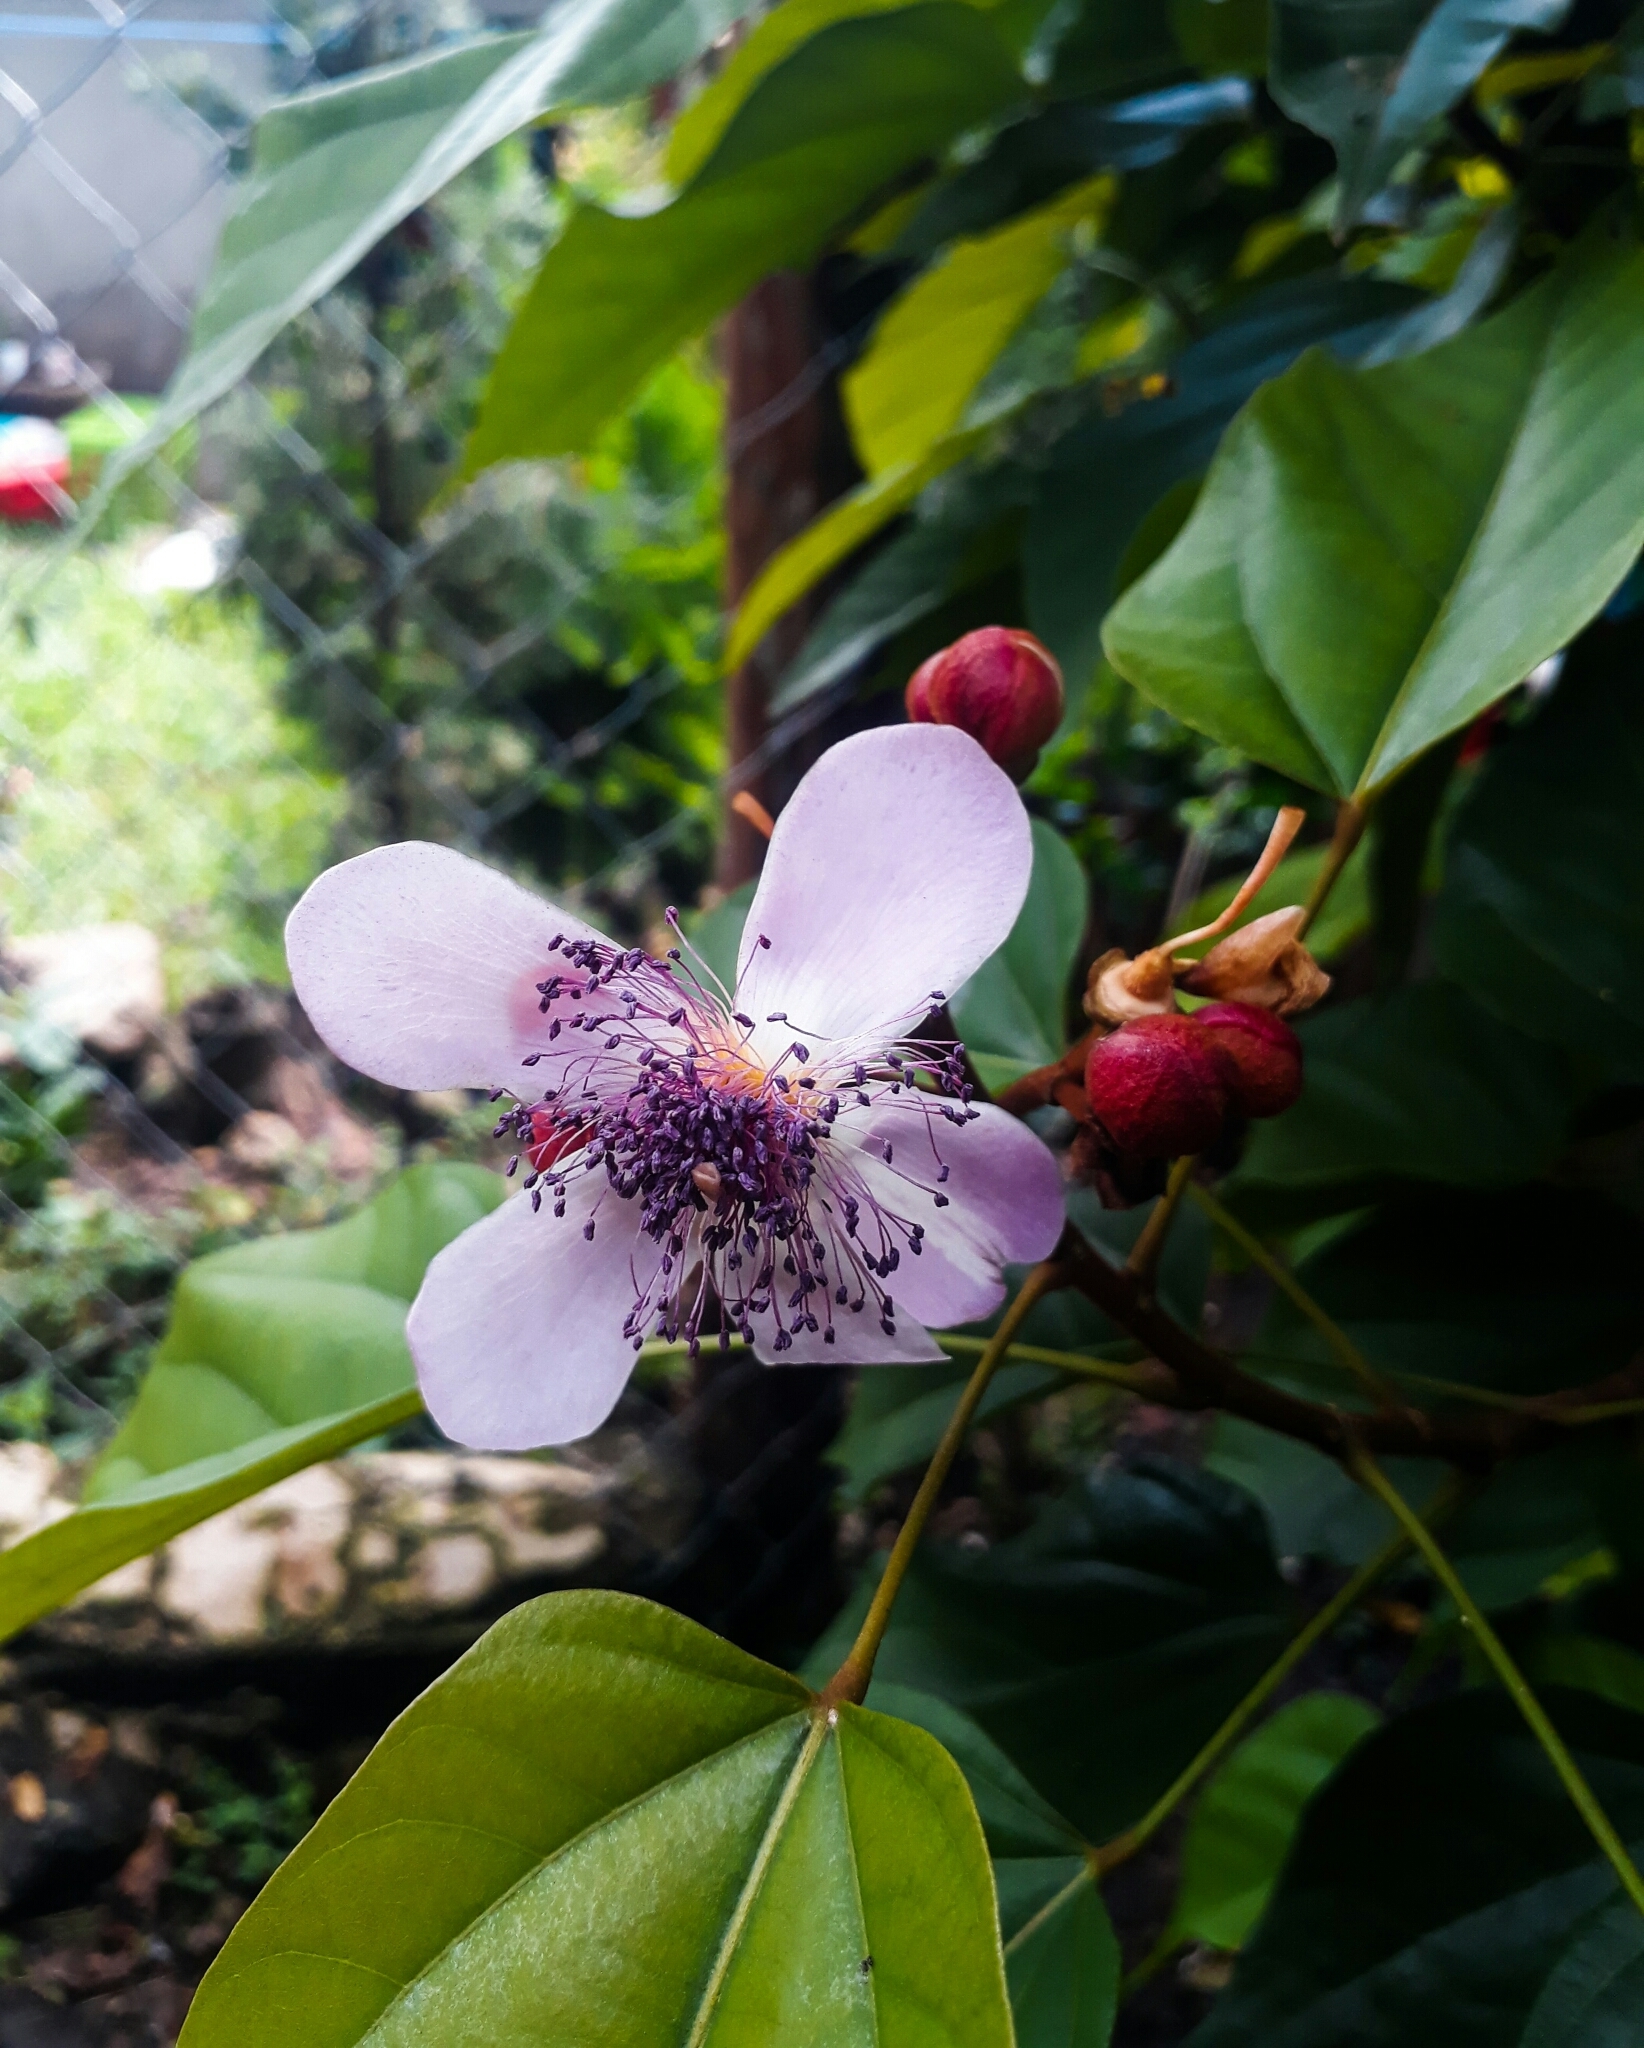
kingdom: Plantae
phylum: Tracheophyta
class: Magnoliopsida
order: Malvales
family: Bixaceae
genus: Bixa
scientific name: Bixa orellana
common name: Lipsticktree
